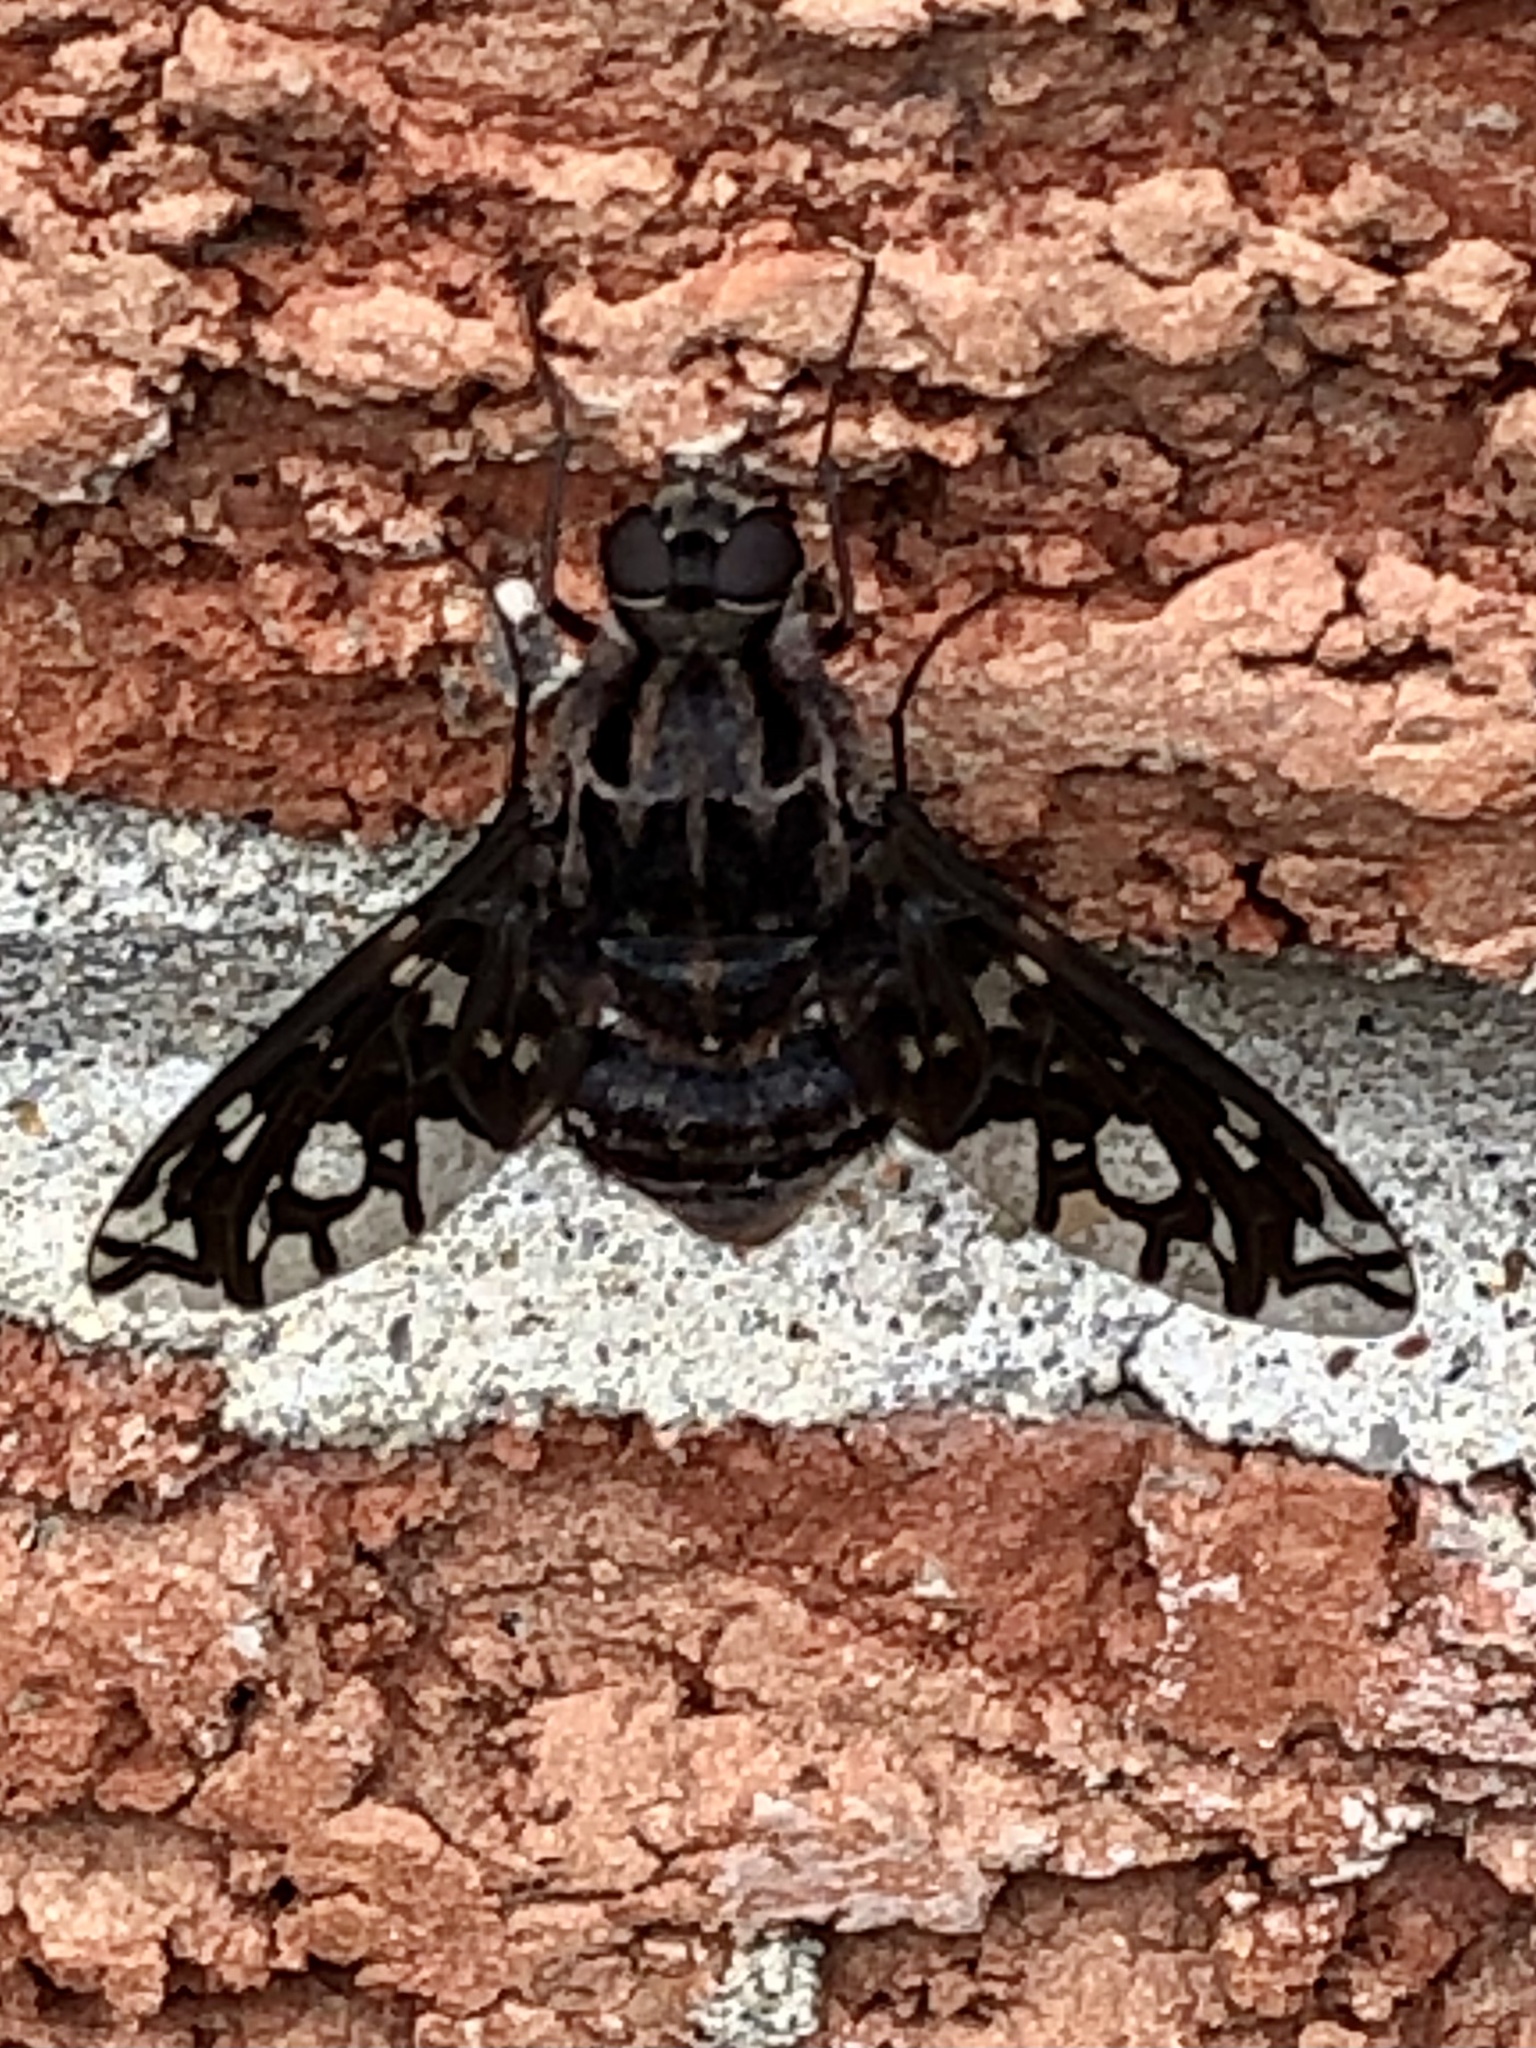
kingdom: Animalia
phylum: Arthropoda
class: Insecta
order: Diptera
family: Bombyliidae
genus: Xenox
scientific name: Xenox tigrinus
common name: Tiger bee fly
